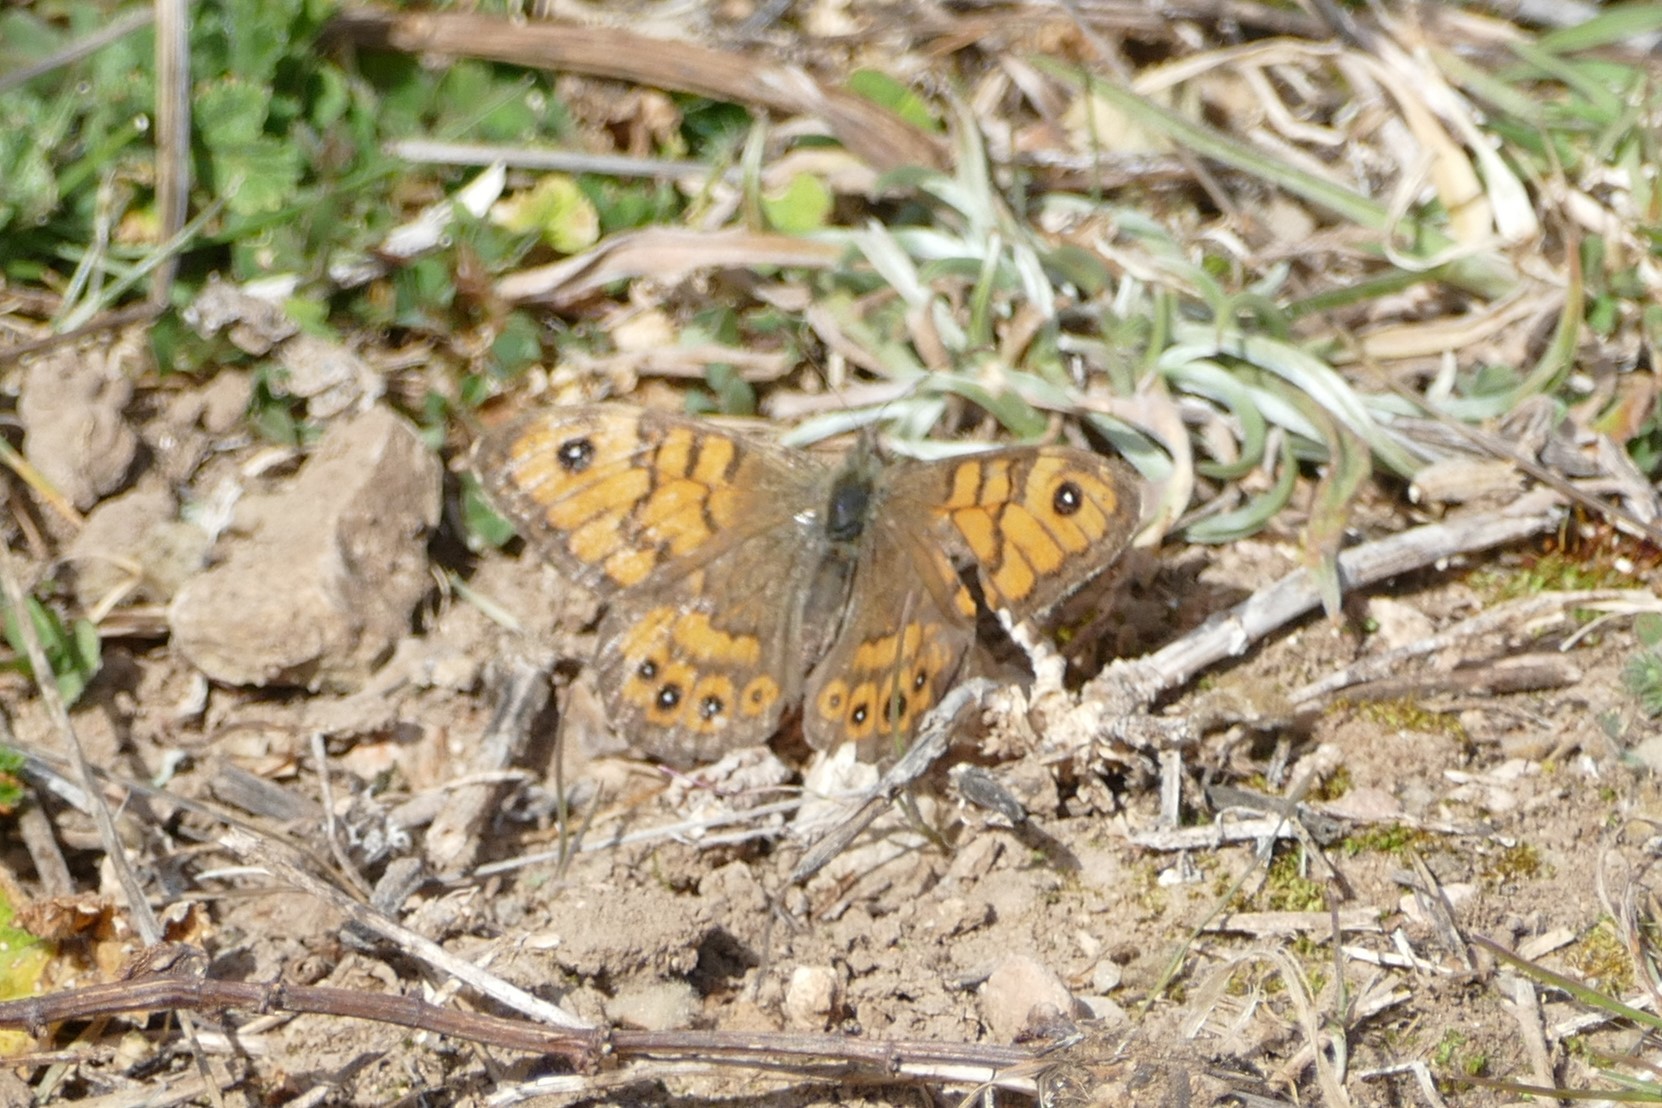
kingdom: Animalia
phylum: Arthropoda
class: Insecta
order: Lepidoptera
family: Nymphalidae
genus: Pararge
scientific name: Pararge Lasiommata megera
